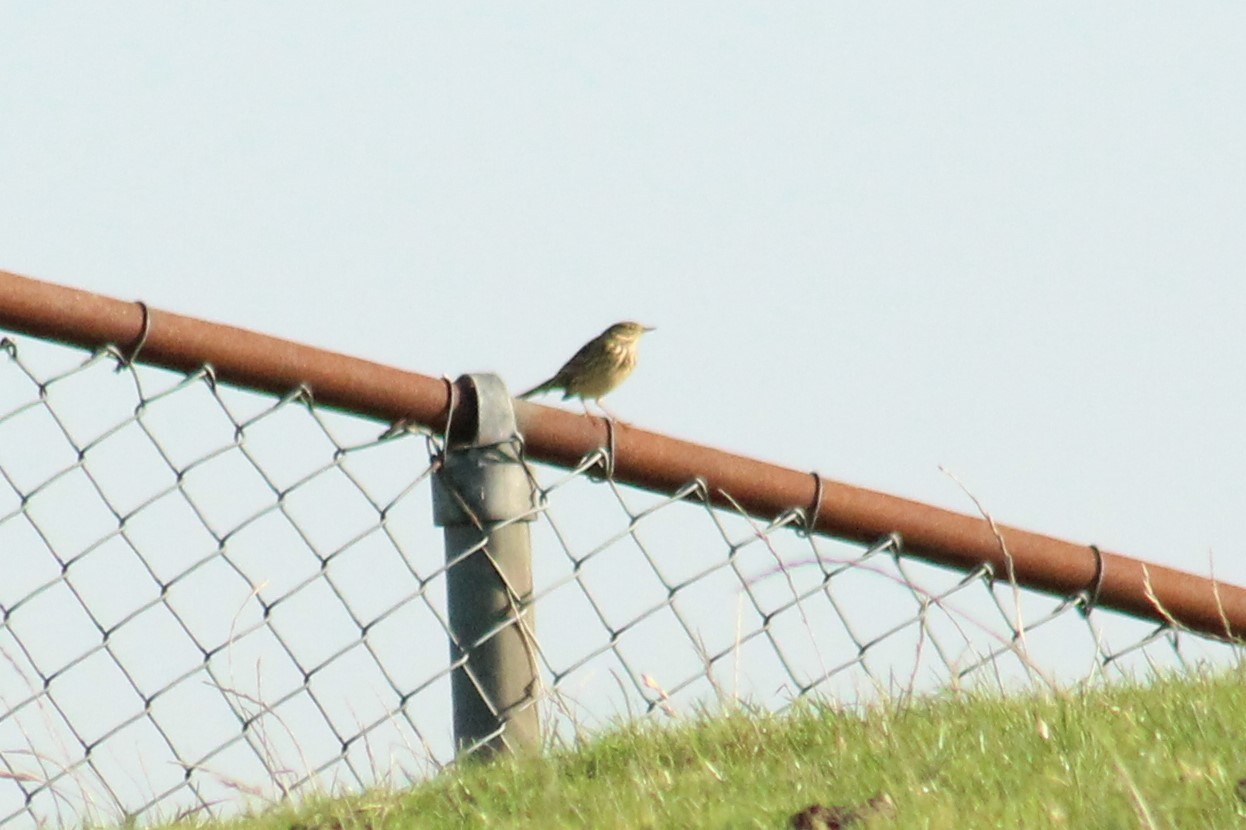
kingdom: Animalia
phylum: Chordata
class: Aves
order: Passeriformes
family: Motacillidae
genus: Anthus
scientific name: Anthus pratensis
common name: Meadow pipit
